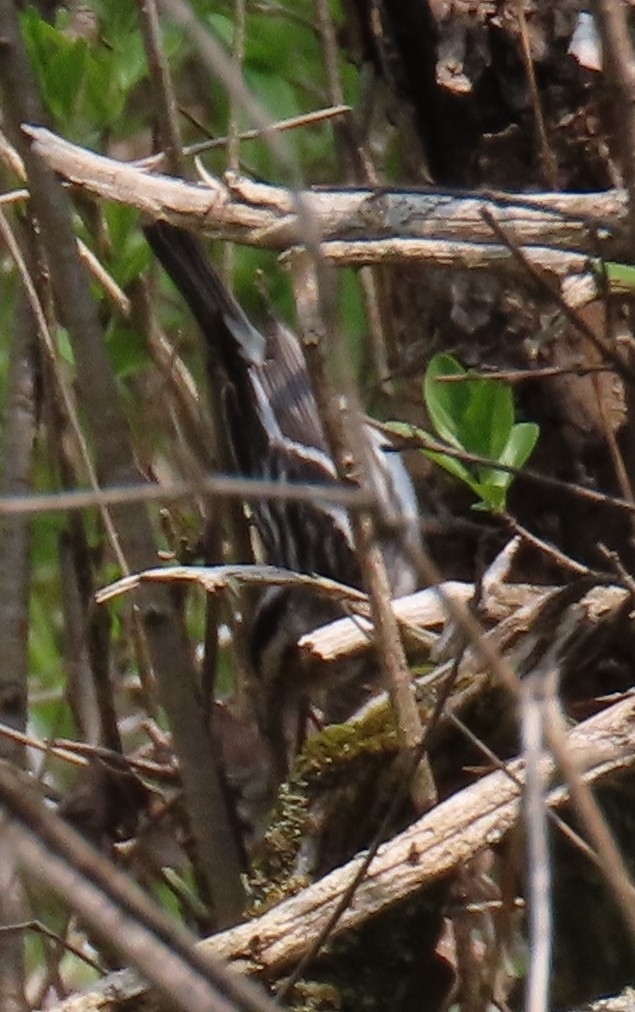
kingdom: Animalia
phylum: Chordata
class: Aves
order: Passeriformes
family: Parulidae
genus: Mniotilta
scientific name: Mniotilta varia
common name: Black-and-white warbler
